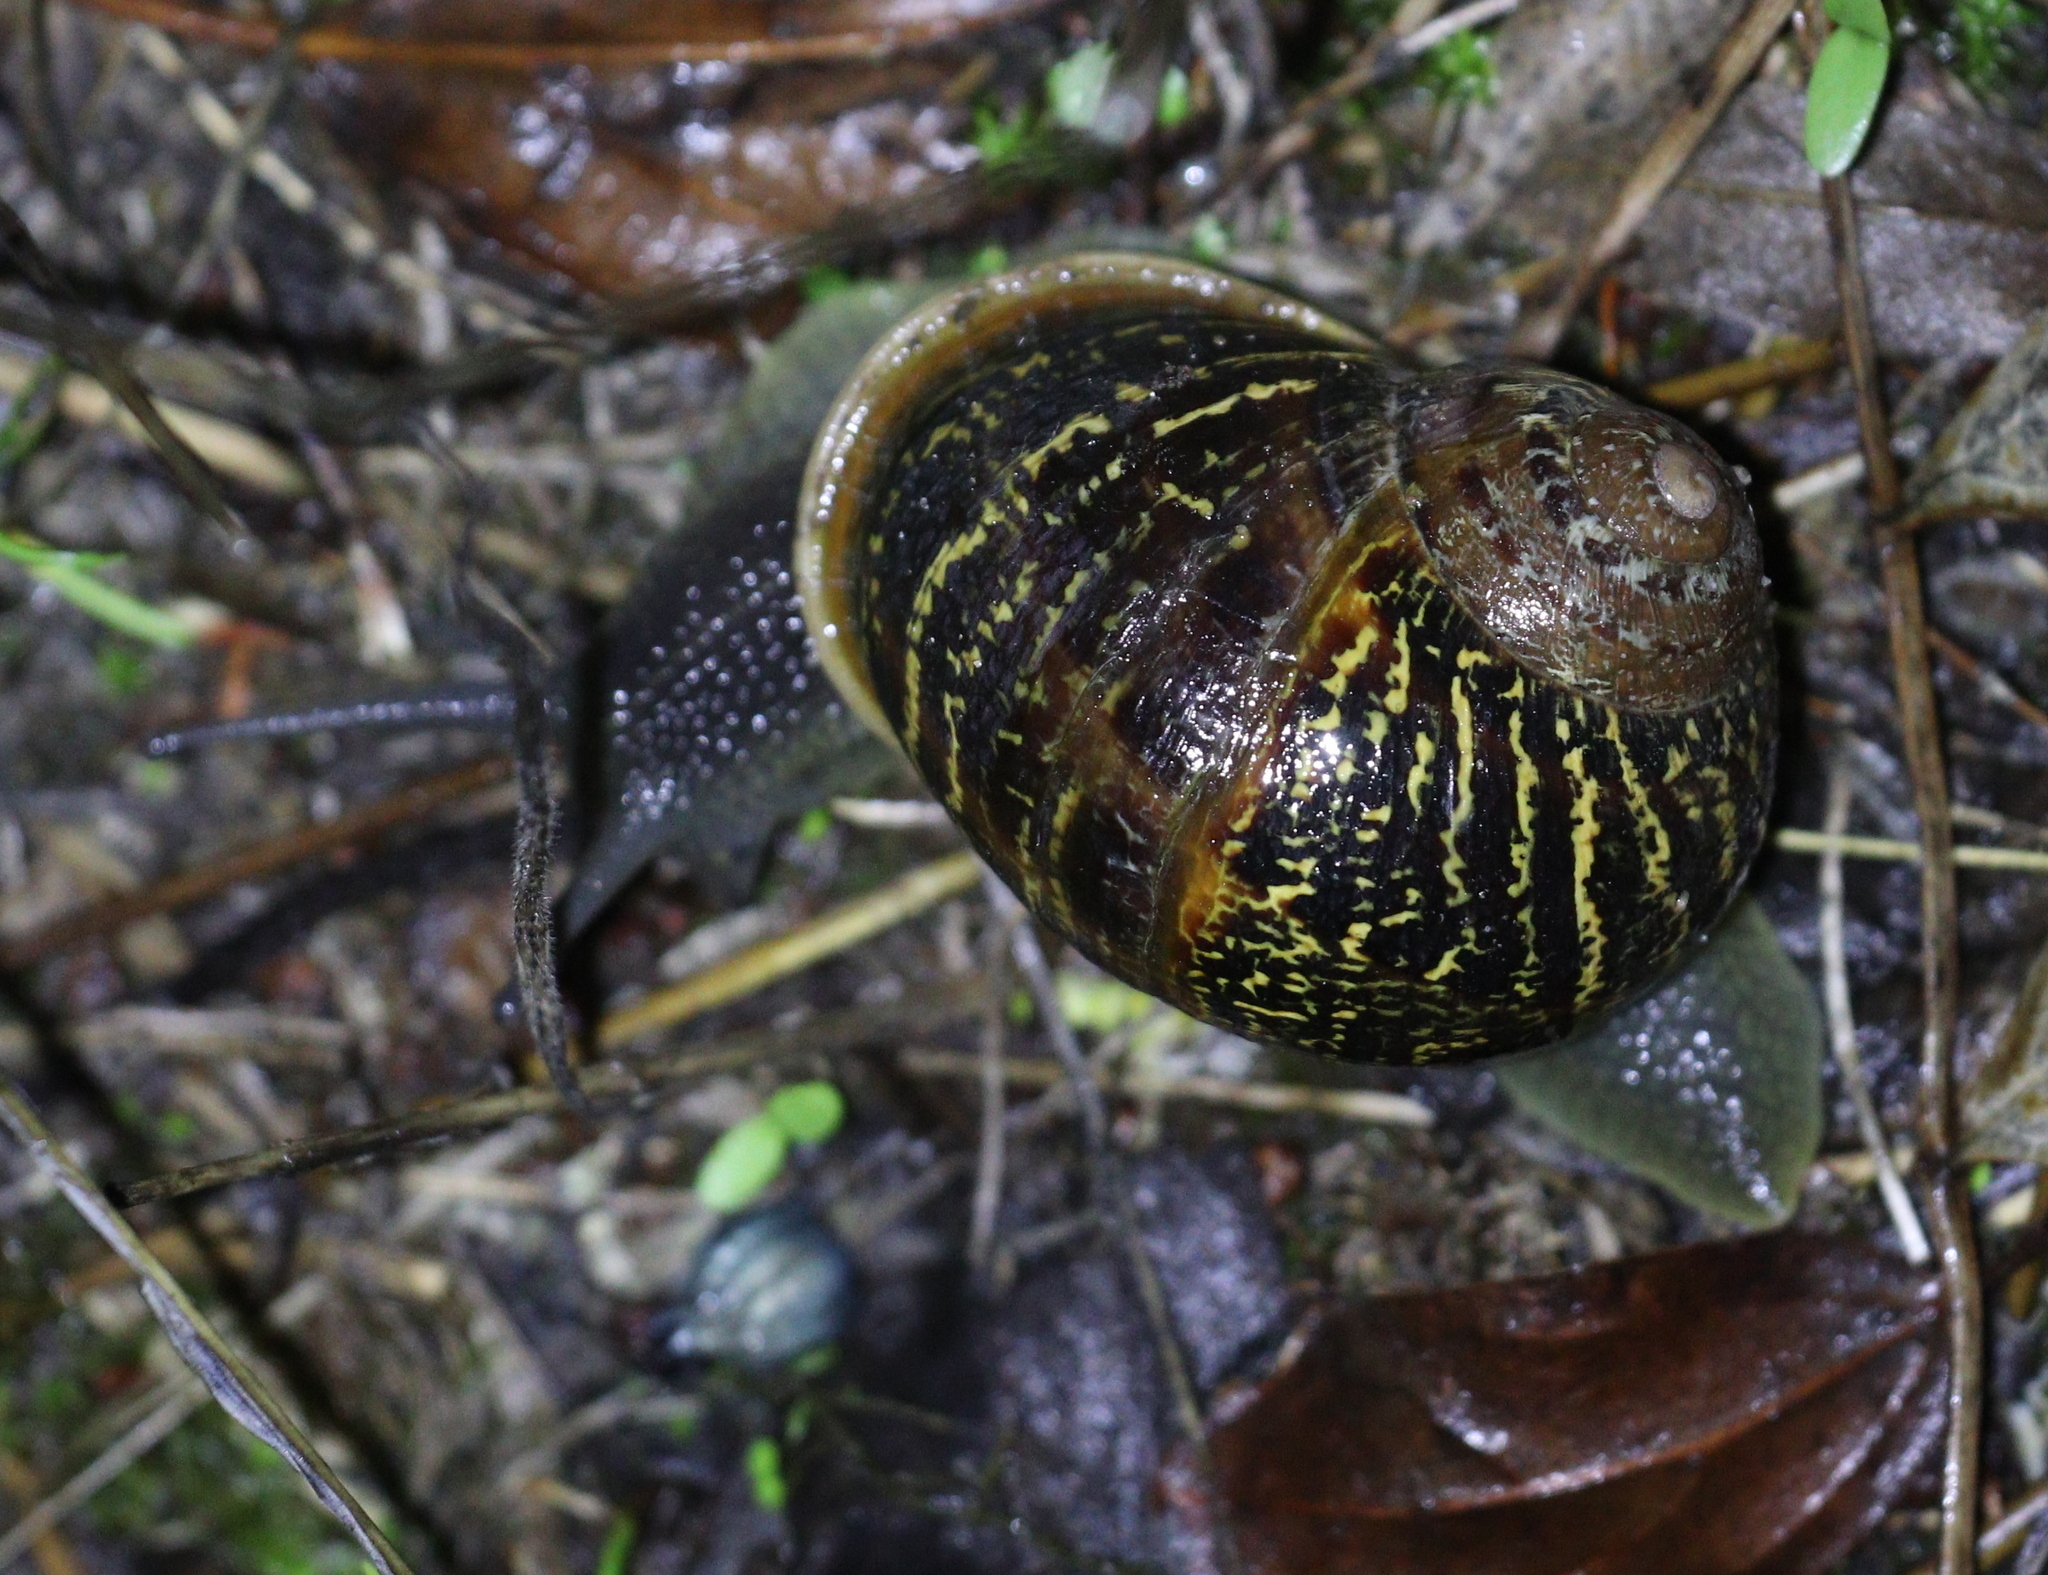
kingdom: Animalia
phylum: Mollusca
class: Gastropoda
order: Stylommatophora
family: Helicidae
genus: Cornu
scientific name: Cornu aspersum
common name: Brown garden snail
